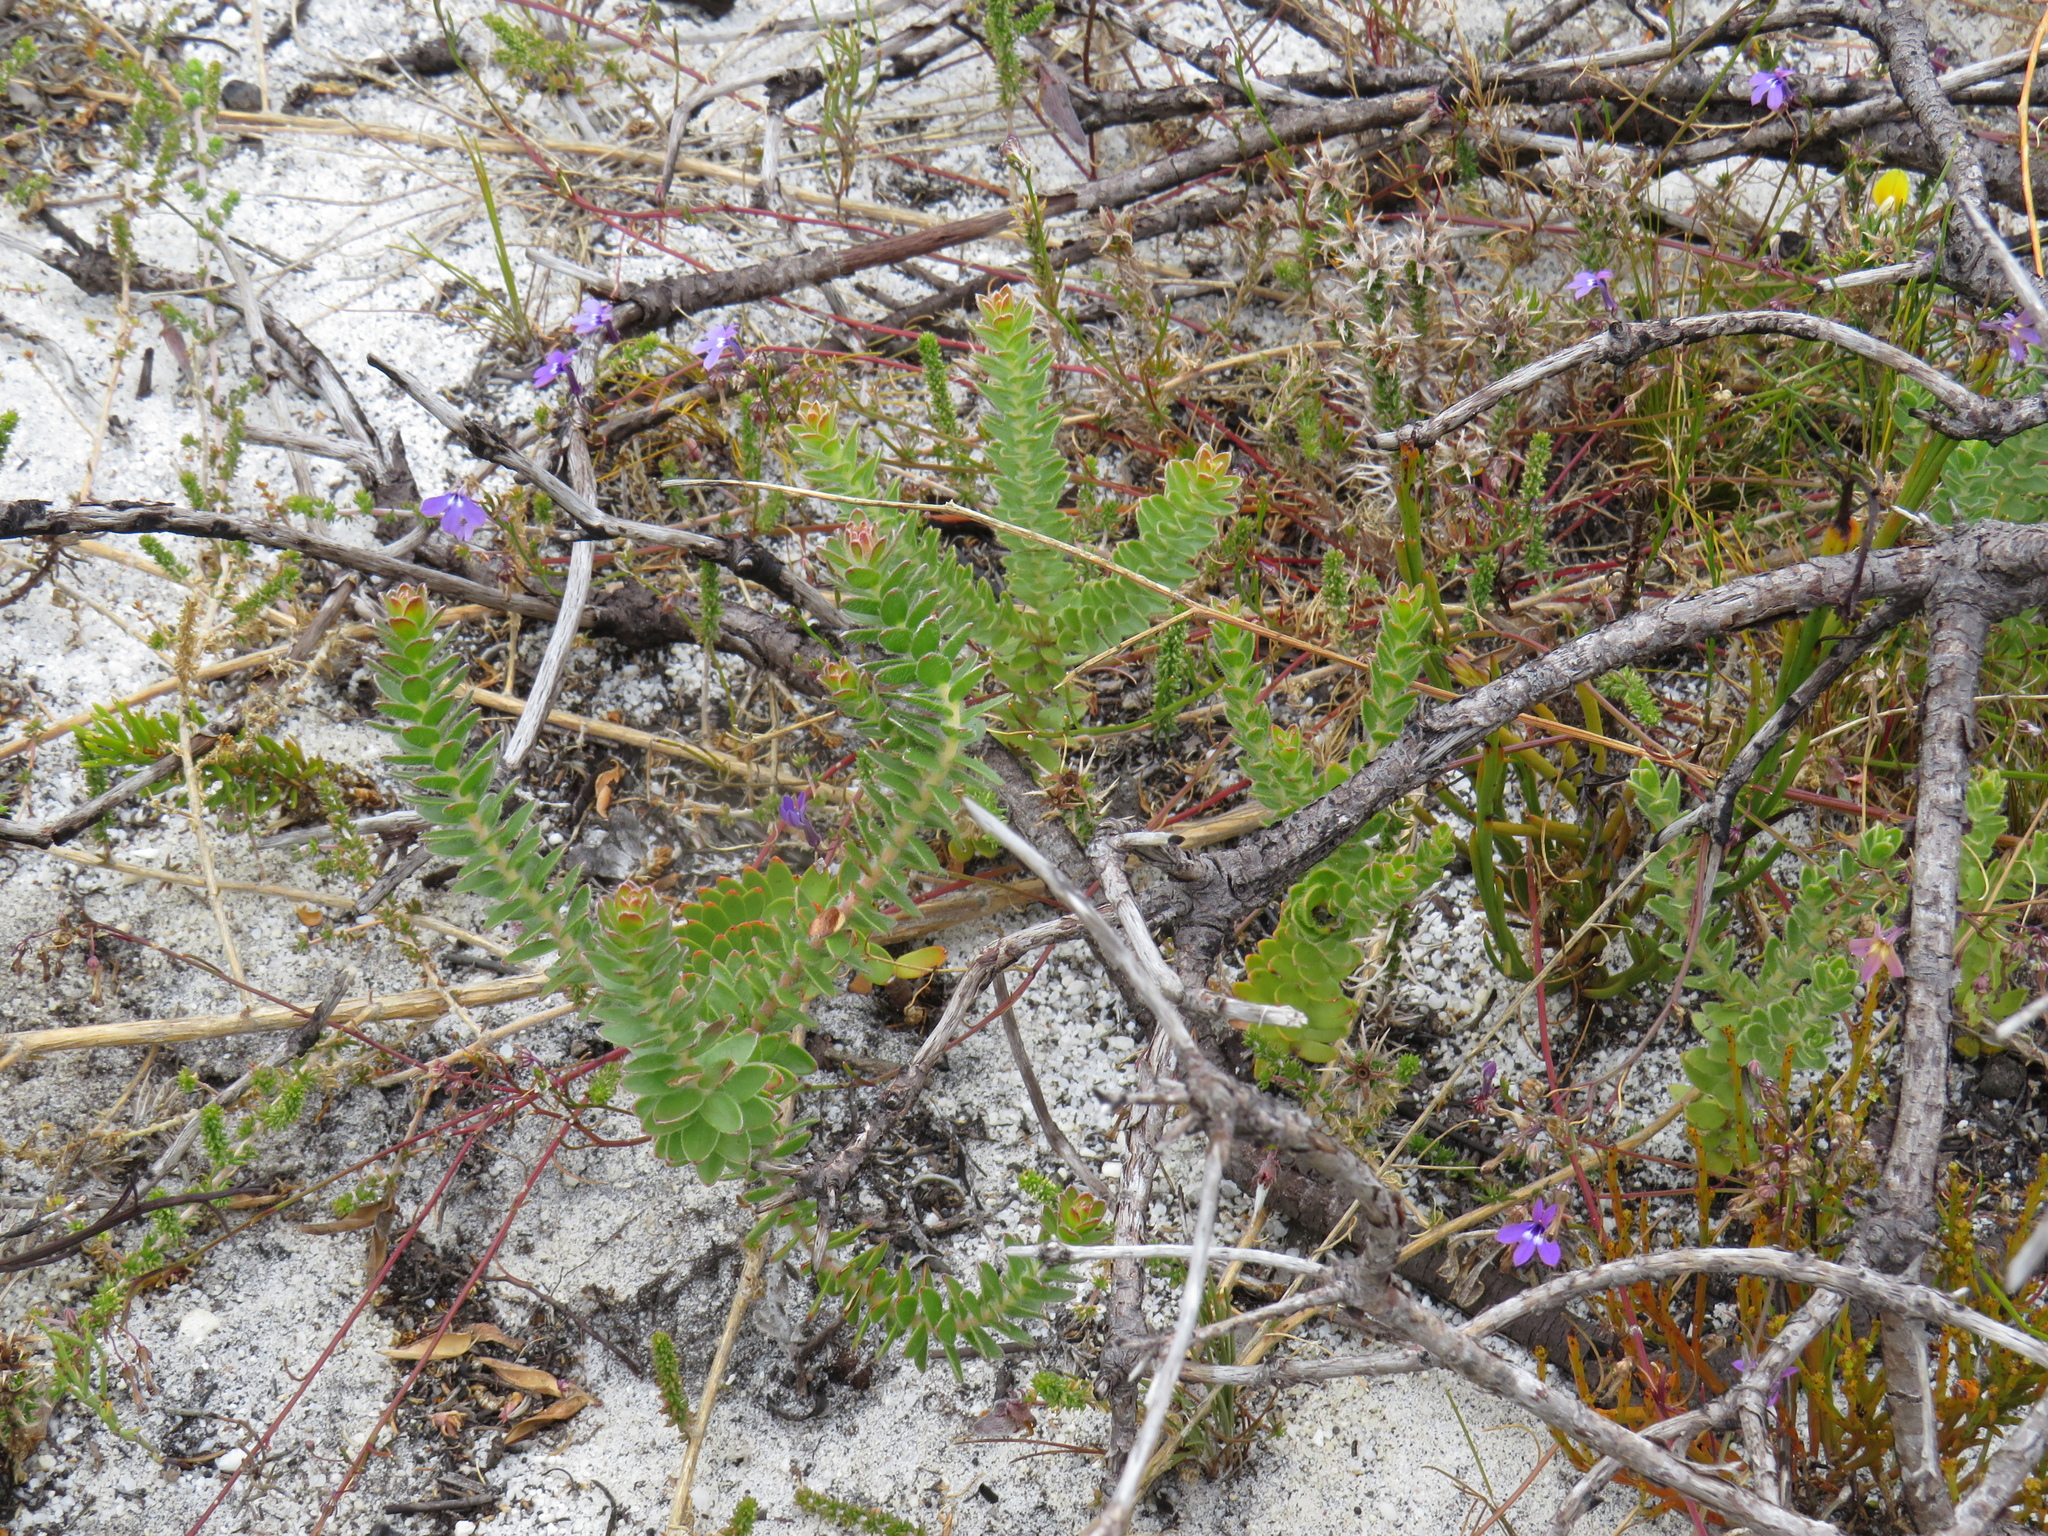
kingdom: Plantae
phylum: Tracheophyta
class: Magnoliopsida
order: Proteales
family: Proteaceae
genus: Diastella
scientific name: Diastella divaricata
